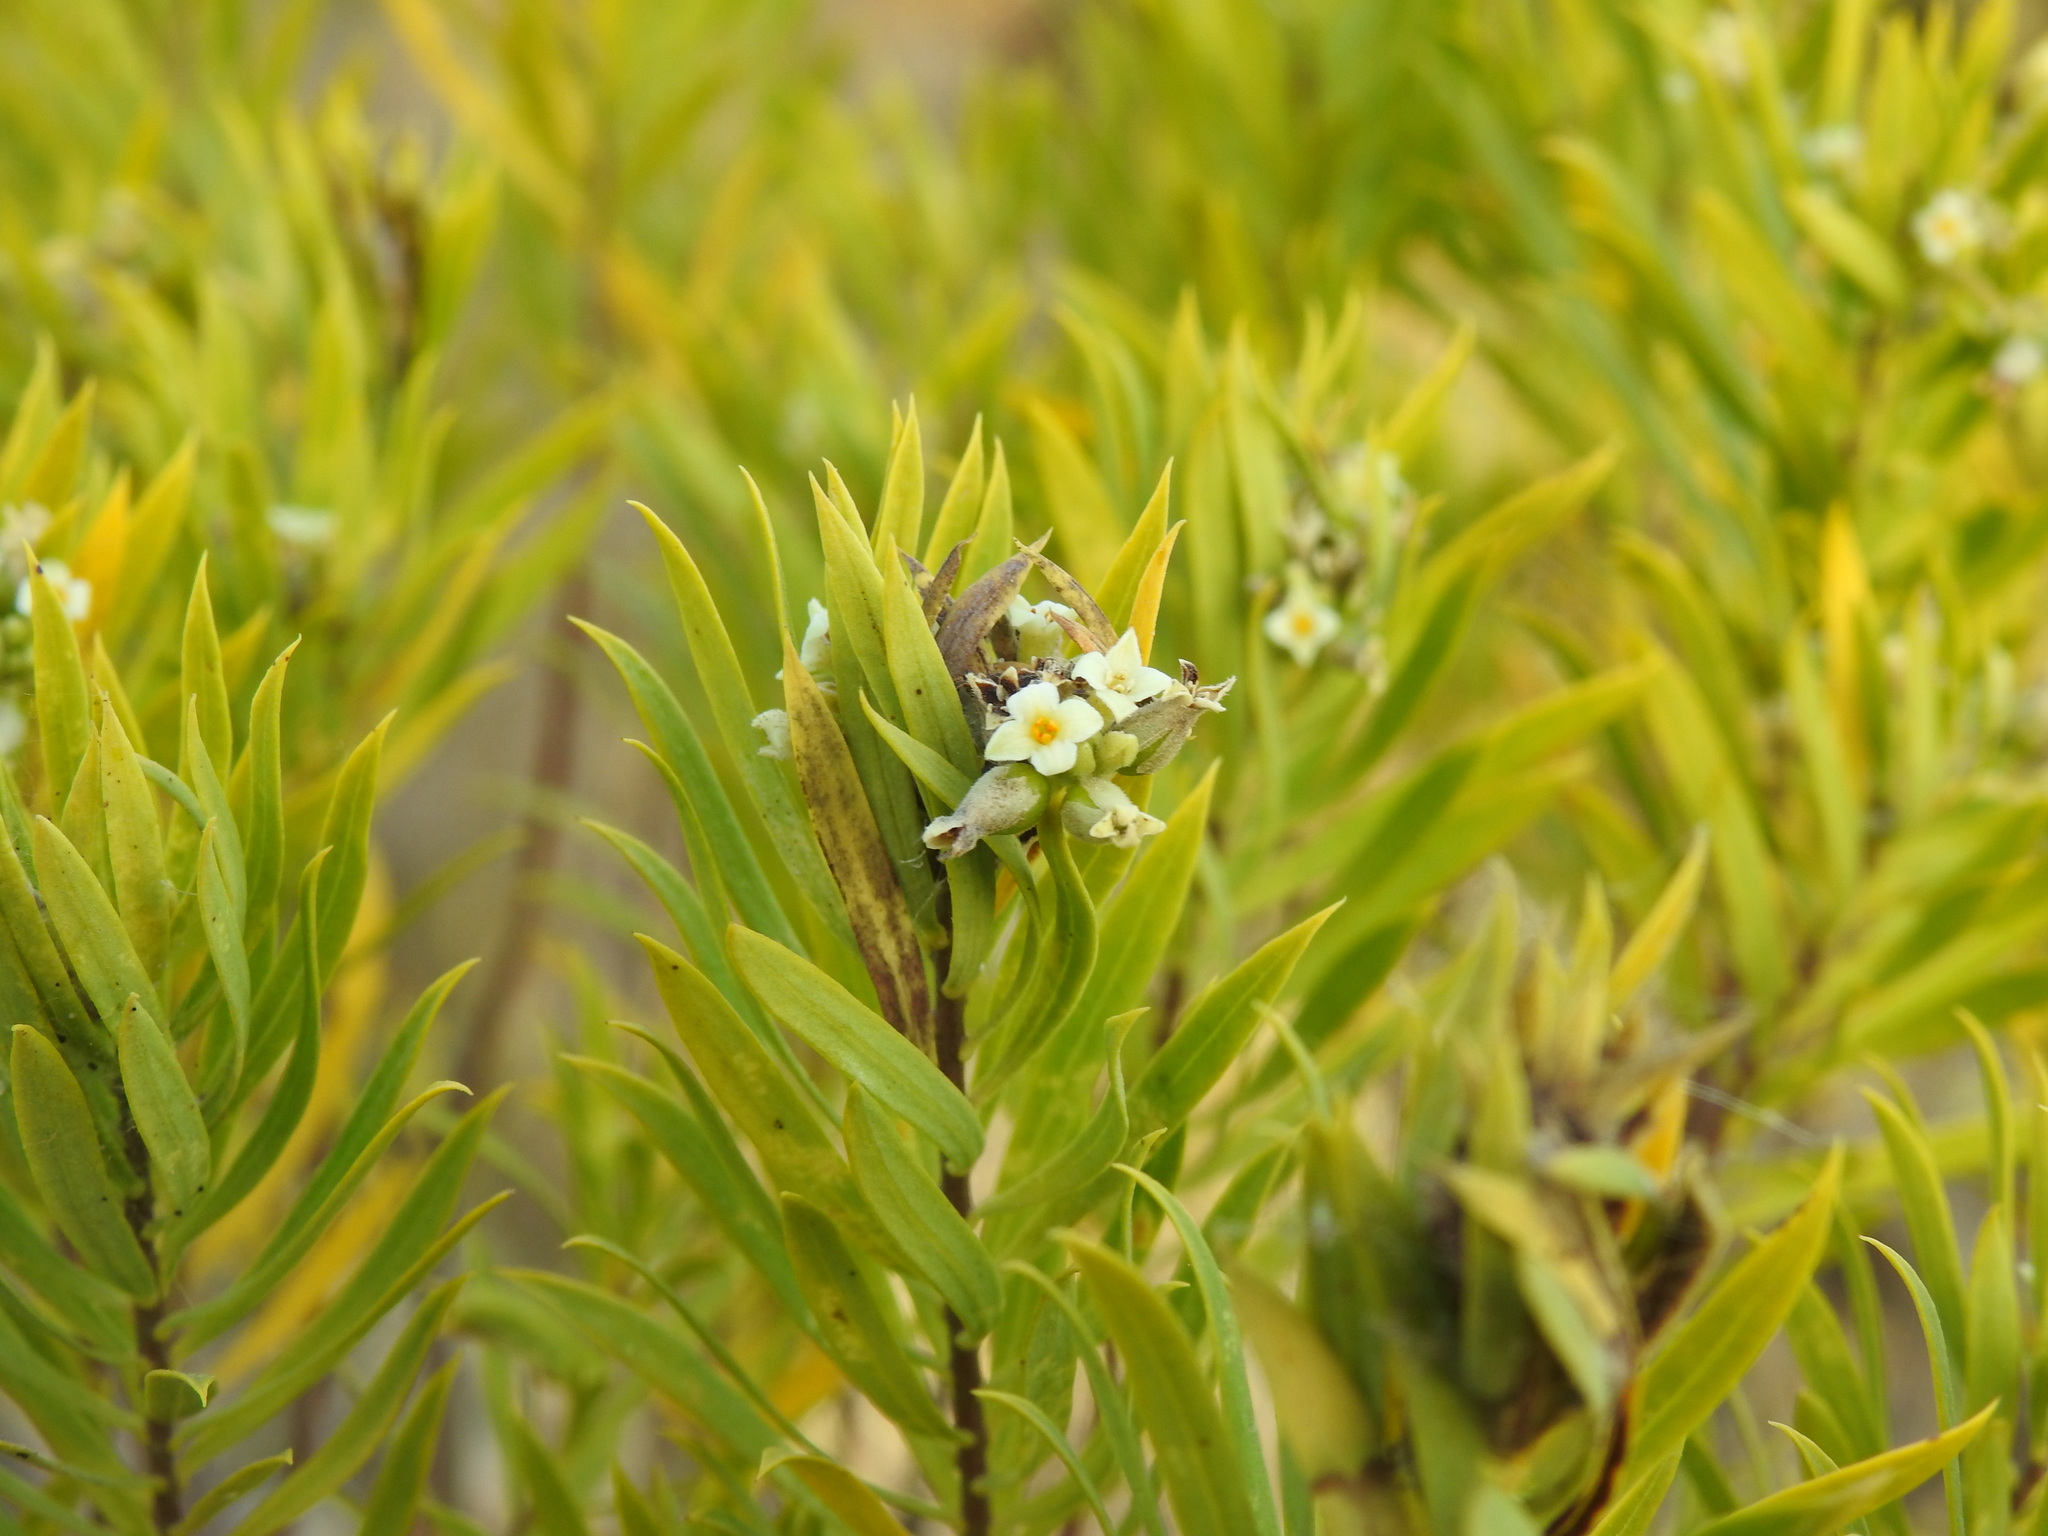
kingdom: Plantae
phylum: Tracheophyta
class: Magnoliopsida
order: Malvales
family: Thymelaeaceae
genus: Daphne
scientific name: Daphne gnidium
